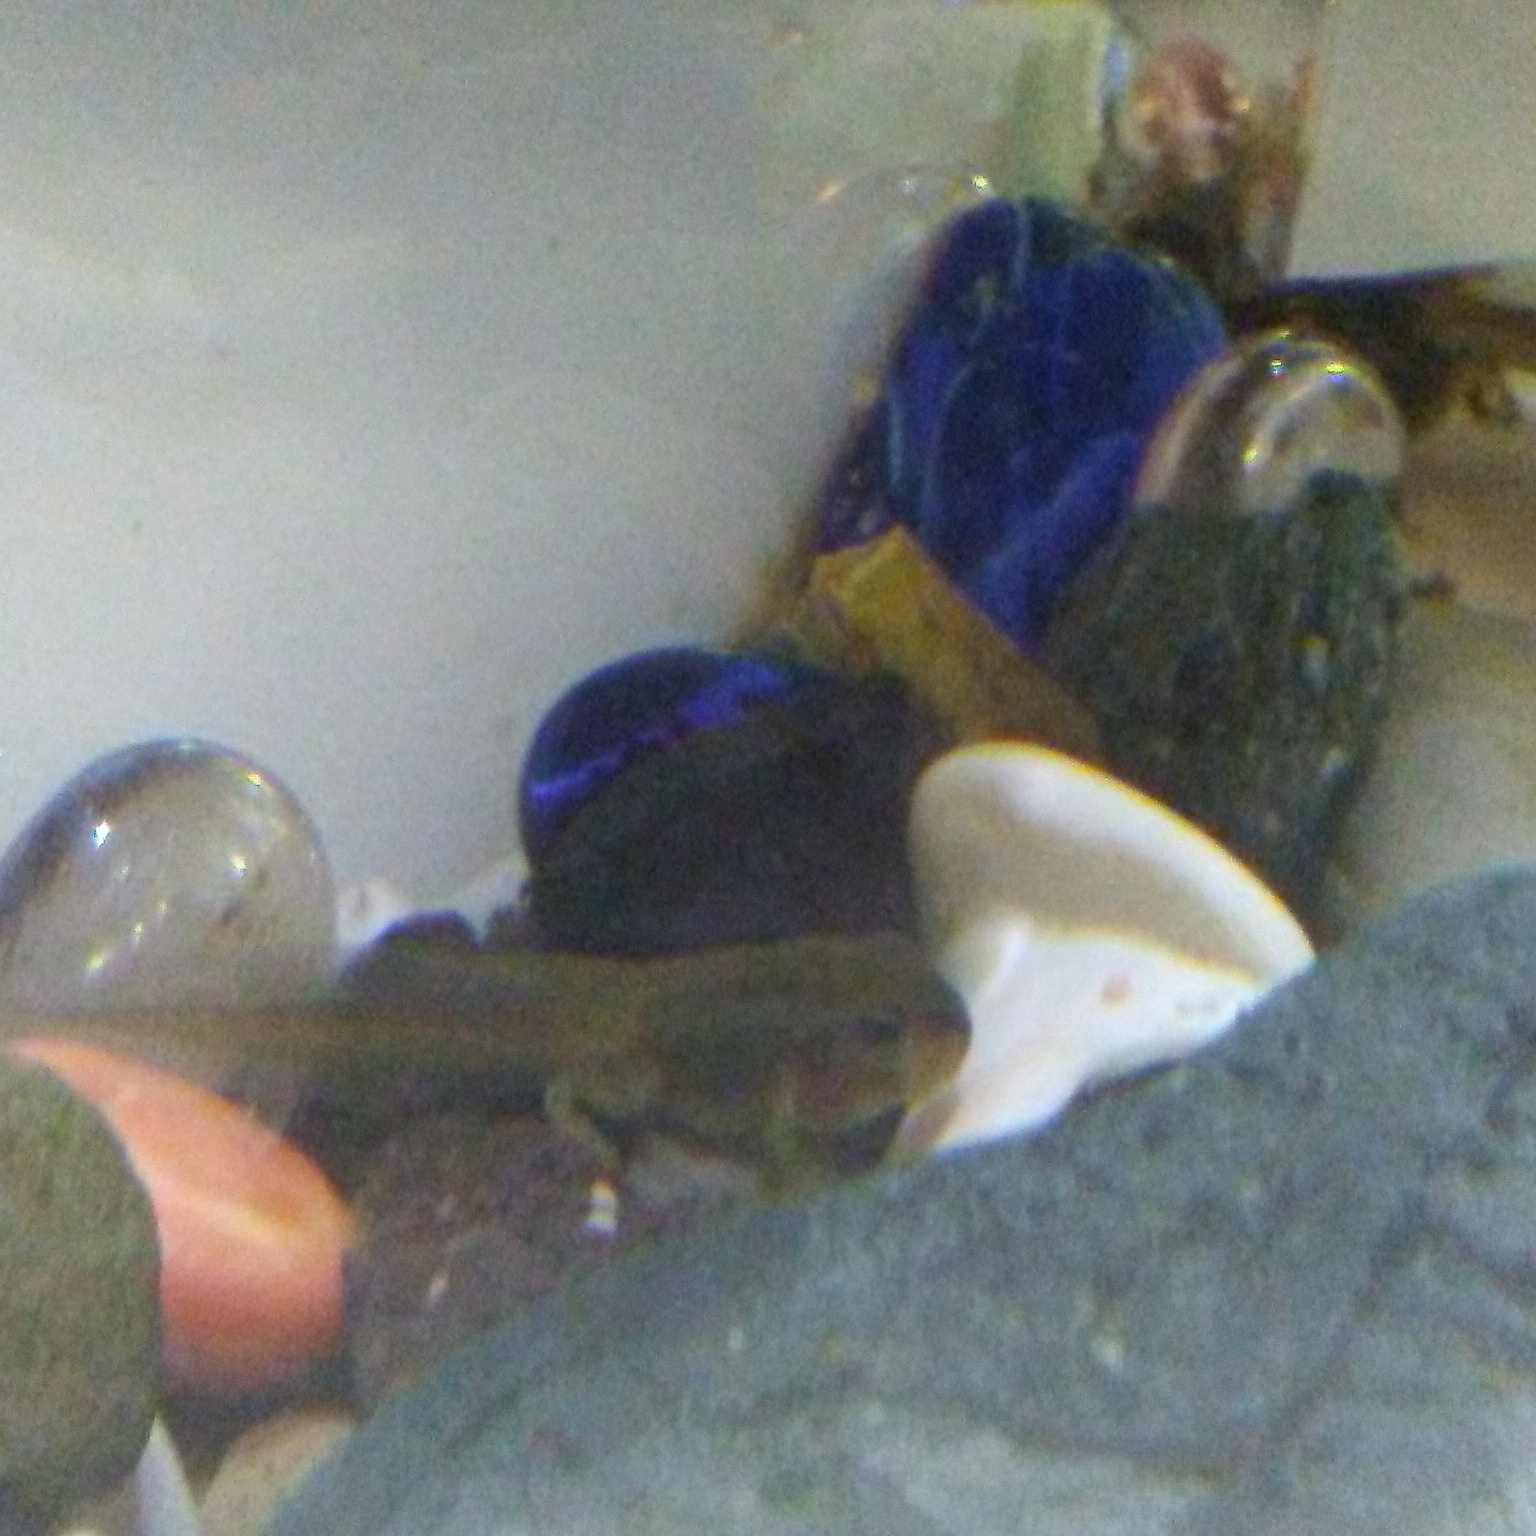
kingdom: Animalia
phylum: Chordata
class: Amphibia
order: Anura
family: Hylidae
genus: Pseudacris
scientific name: Pseudacris regilla
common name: Pacific chorus frog
